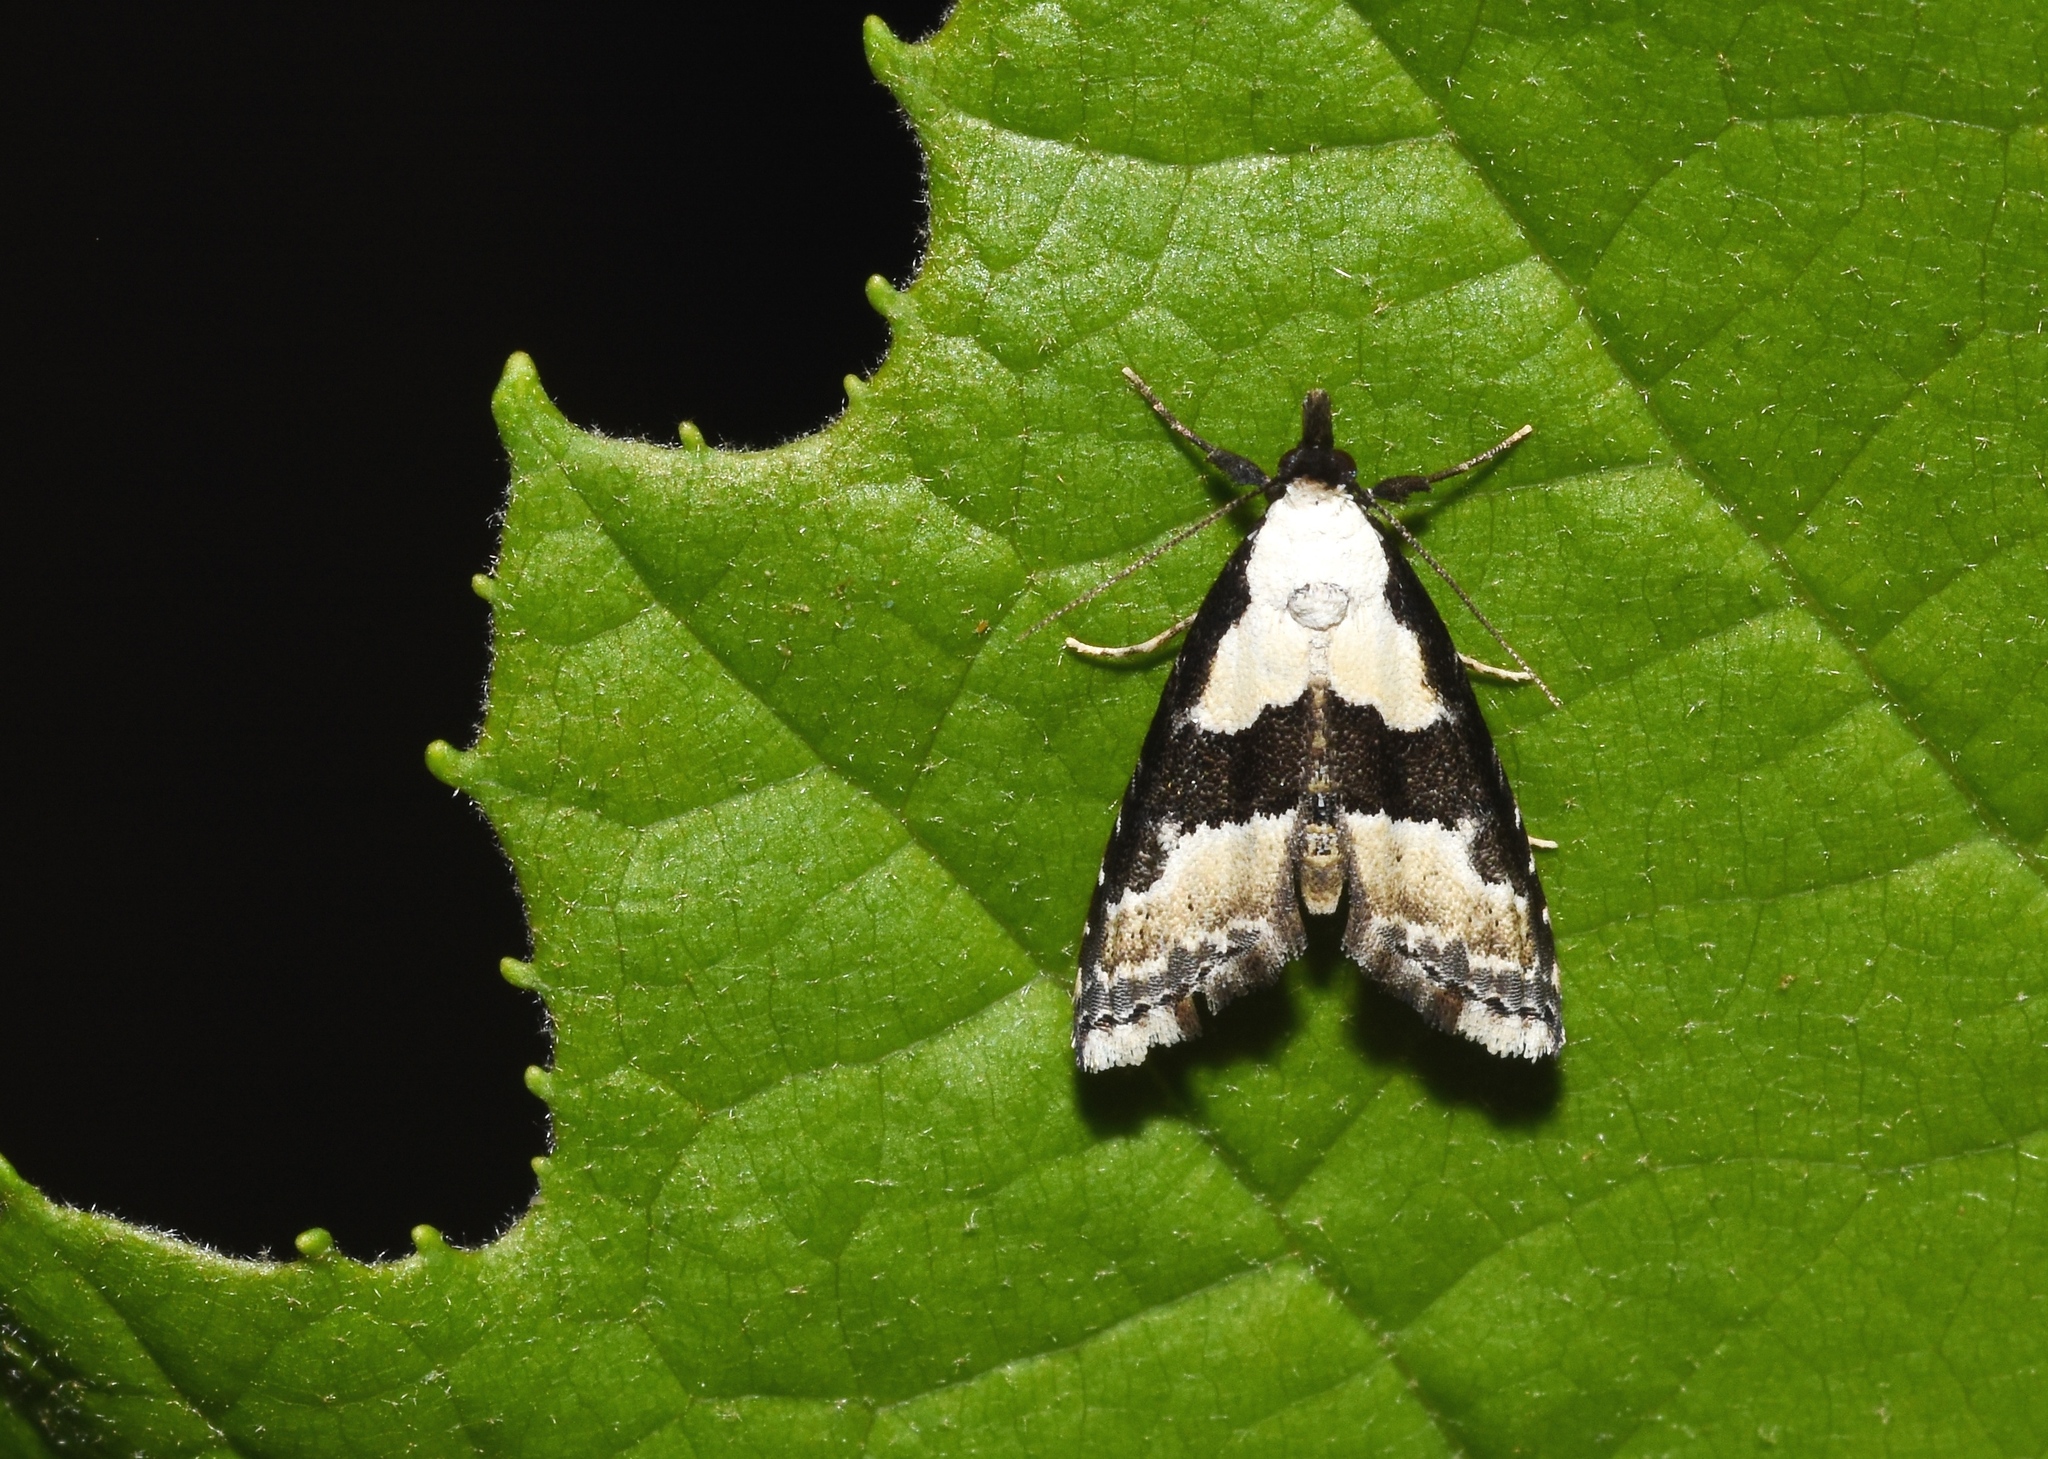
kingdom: Animalia
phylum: Arthropoda
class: Insecta
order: Lepidoptera
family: Noctuidae
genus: Nigetia
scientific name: Nigetia formosalis
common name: Thin-winged owlet
